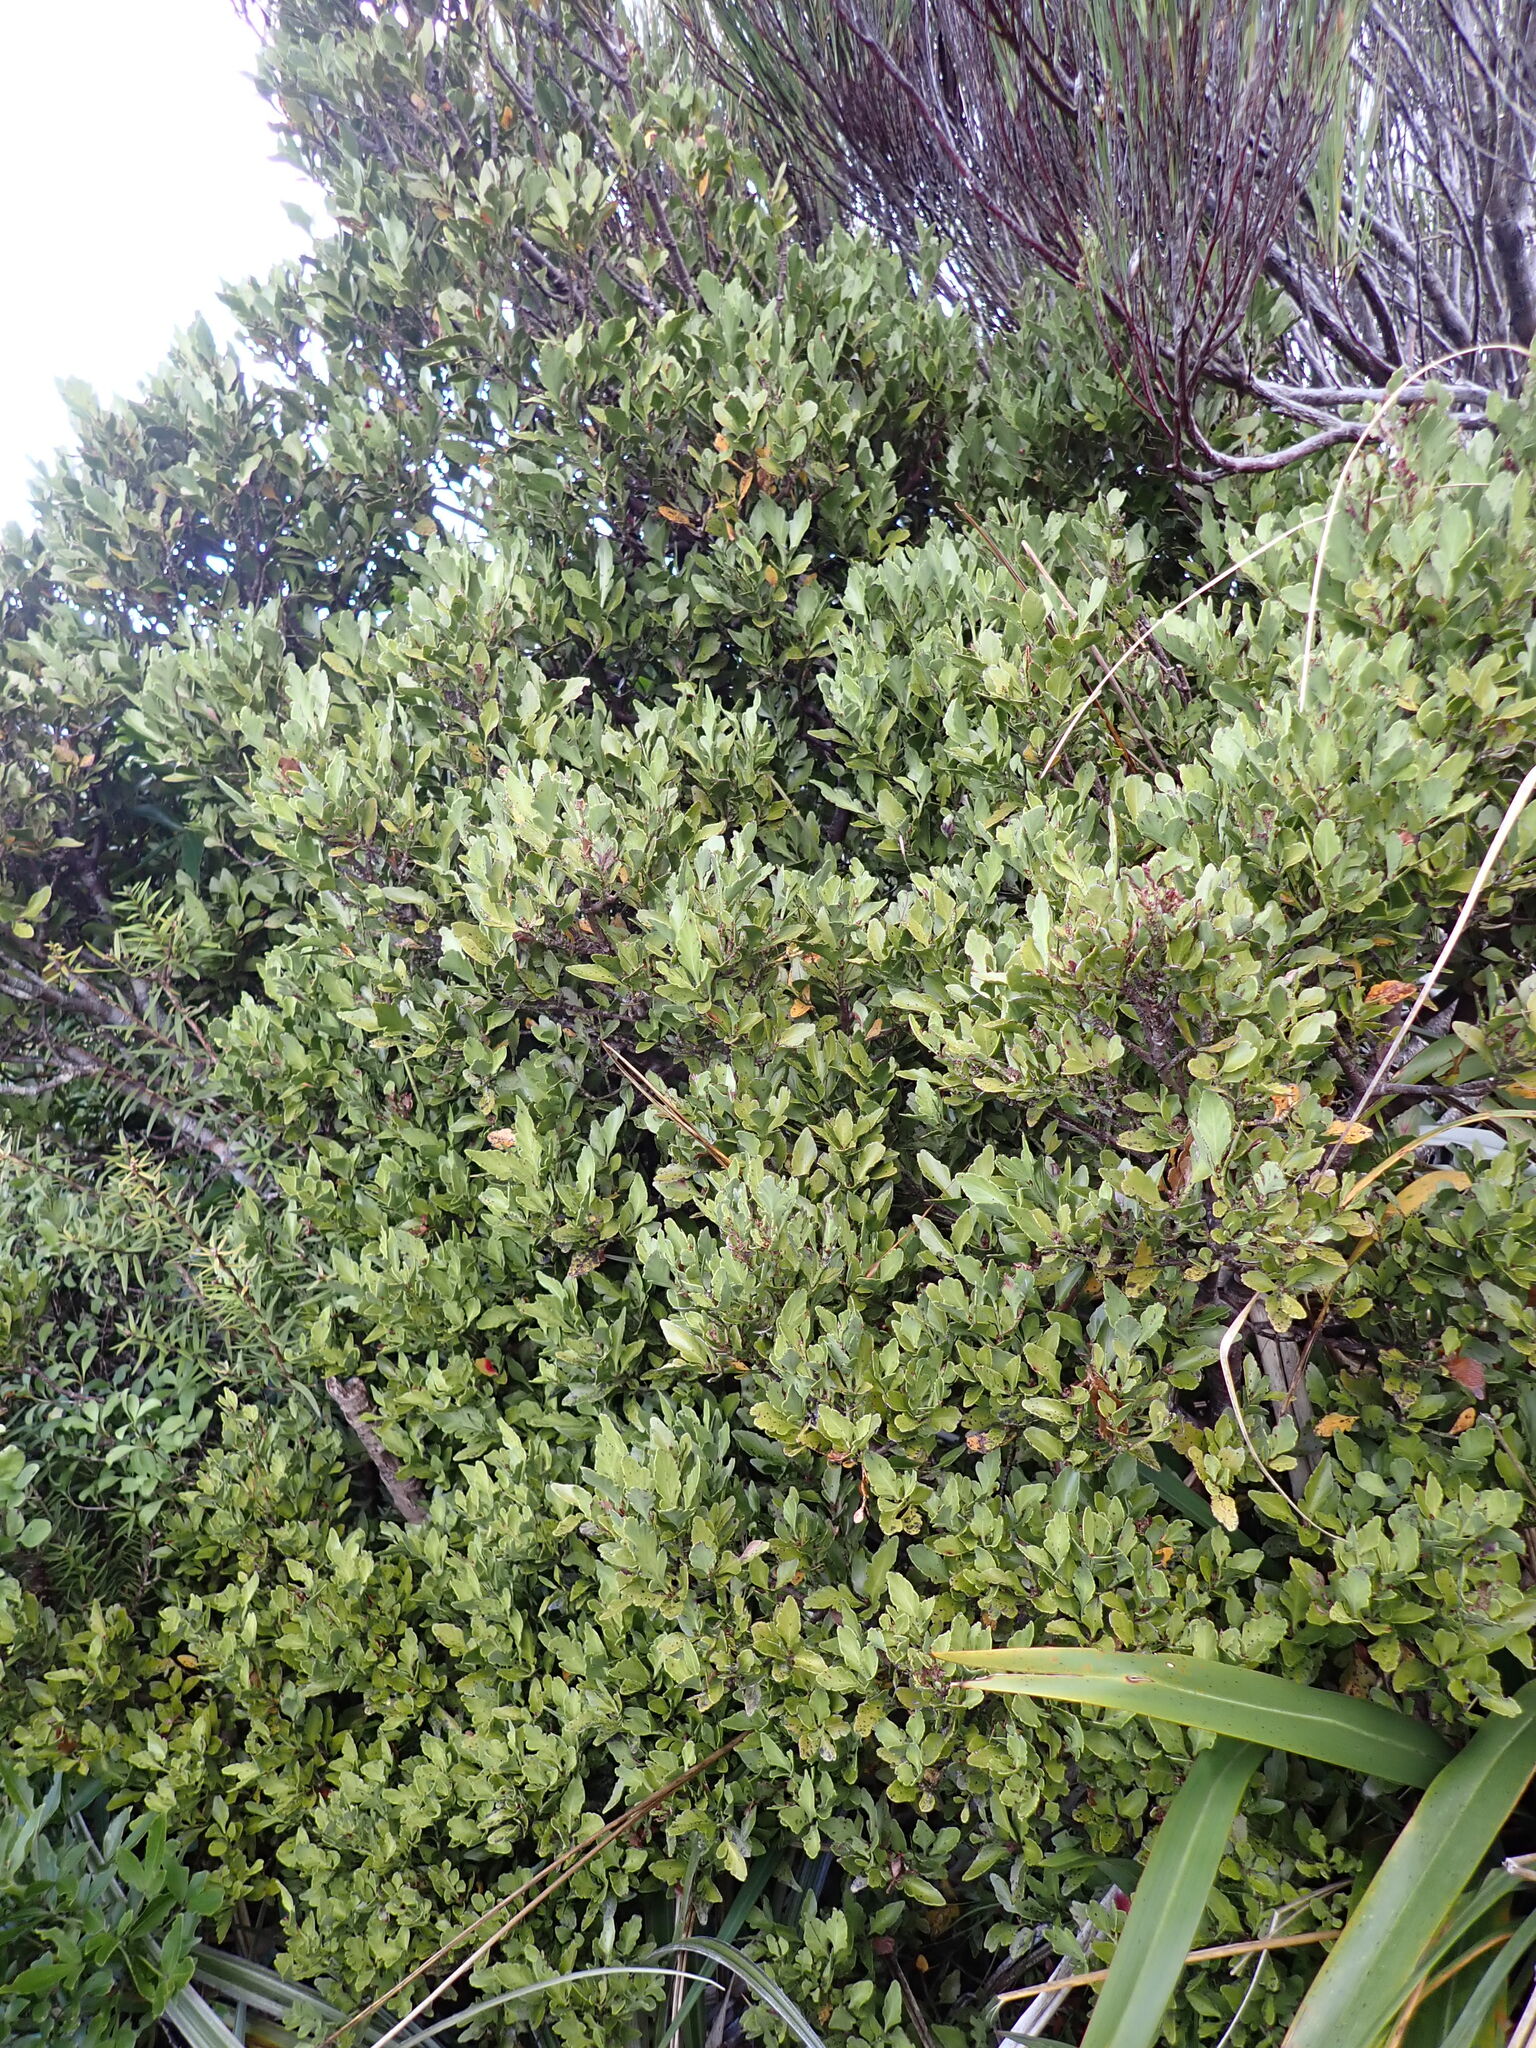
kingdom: Plantae
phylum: Tracheophyta
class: Pinopsida
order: Pinales
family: Phyllocladaceae
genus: Phyllocladus
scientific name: Phyllocladus trichomanoides
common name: Celery pine
